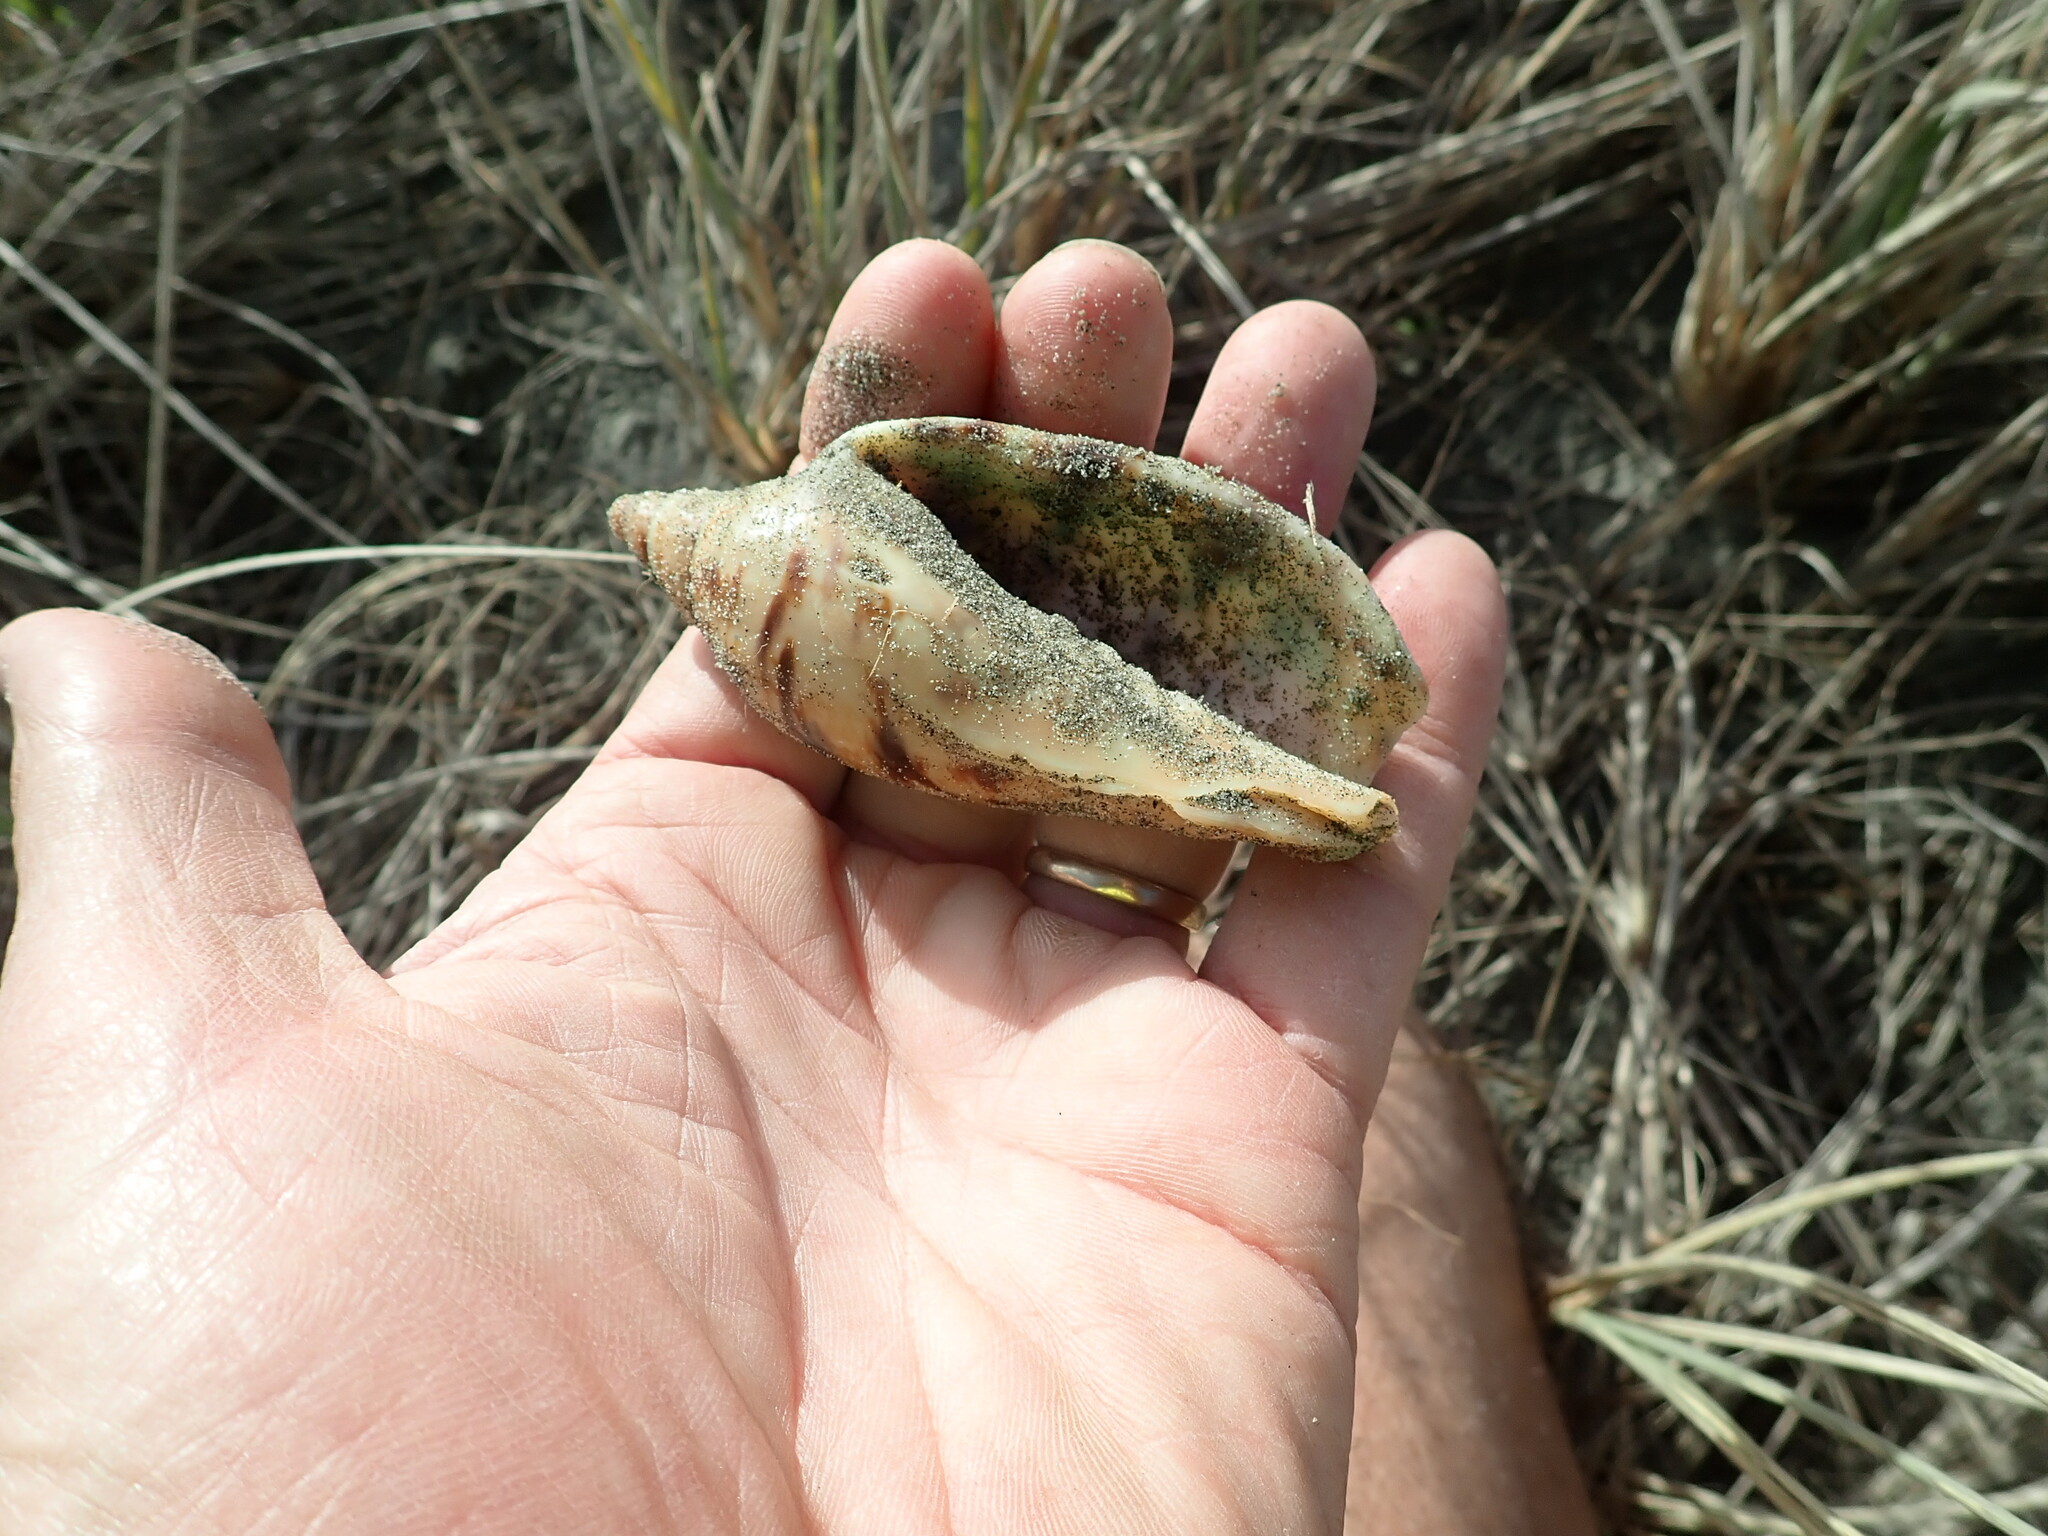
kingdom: Animalia
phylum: Mollusca
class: Gastropoda
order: Neogastropoda
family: Volutidae
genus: Alcithoe
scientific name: Alcithoe arabica
